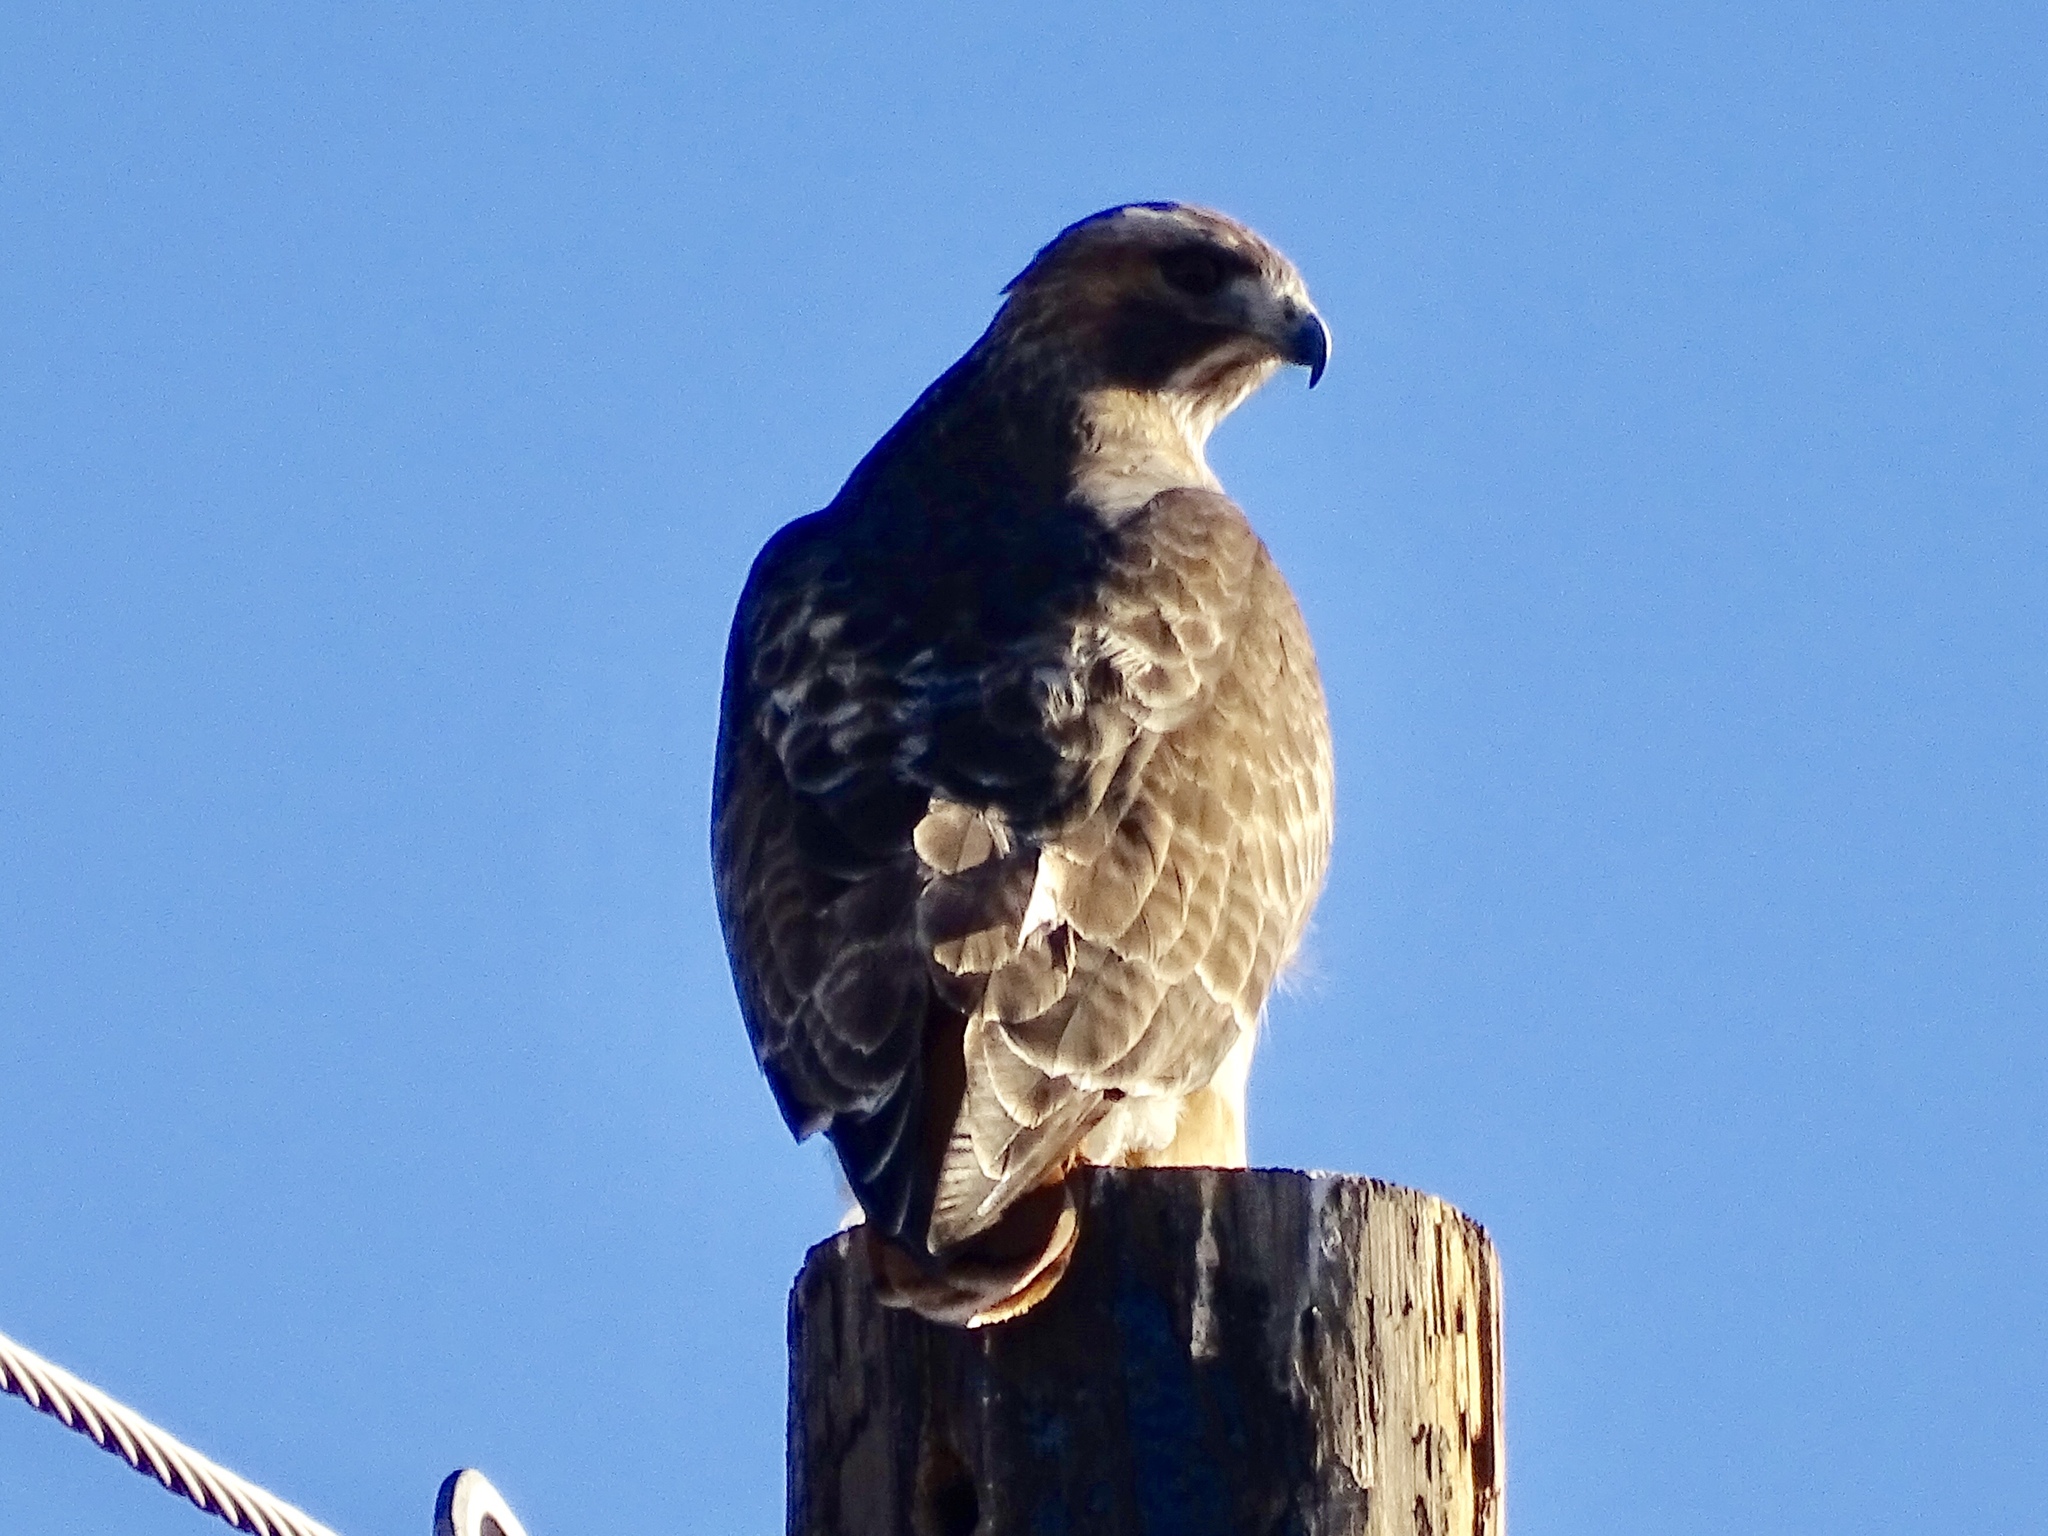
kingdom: Animalia
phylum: Chordata
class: Aves
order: Accipitriformes
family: Accipitridae
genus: Buteo
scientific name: Buteo jamaicensis
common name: Red-tailed hawk
